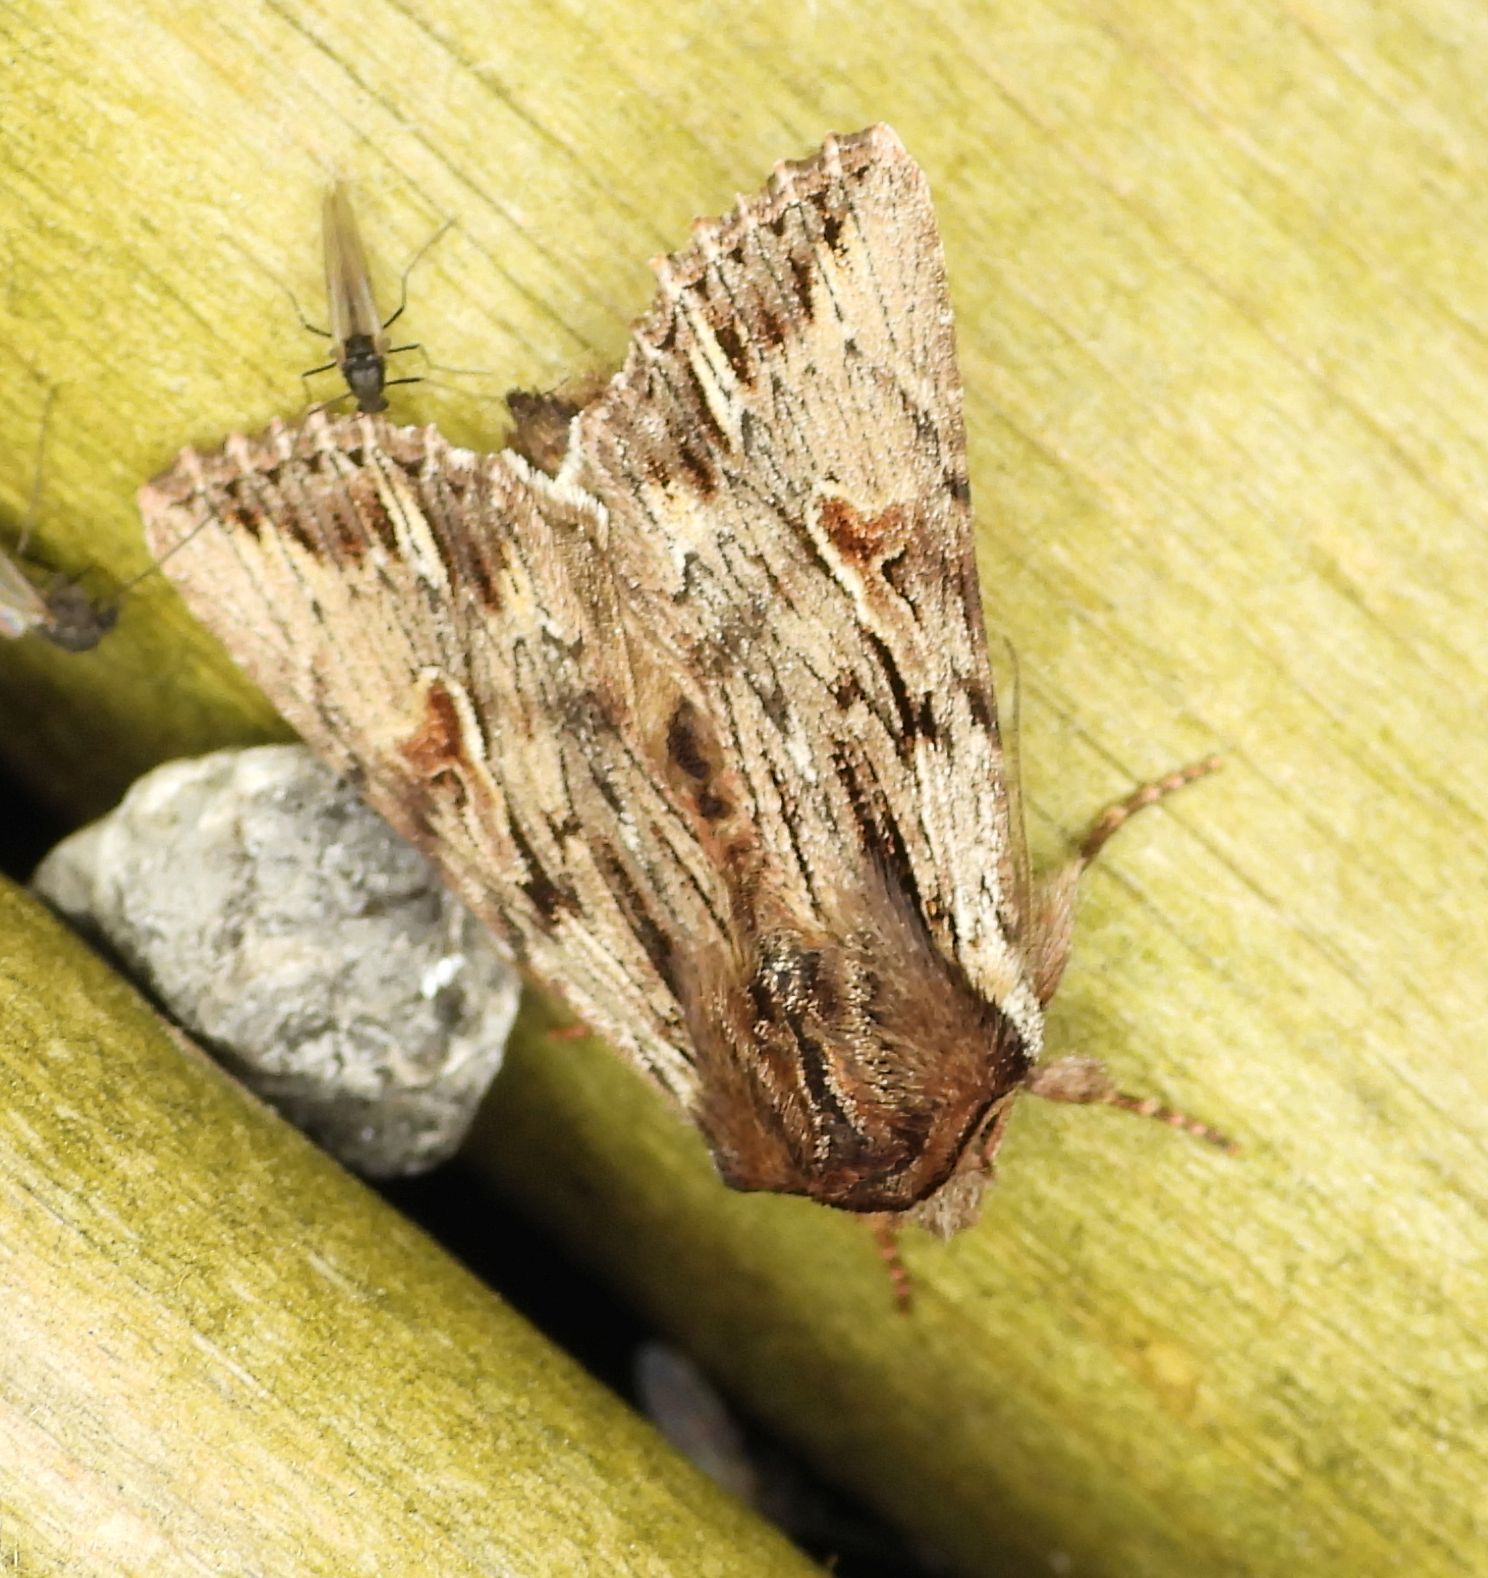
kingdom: Animalia
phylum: Arthropoda
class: Insecta
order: Lepidoptera
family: Noctuidae
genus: Achatia
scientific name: Achatia evicta
